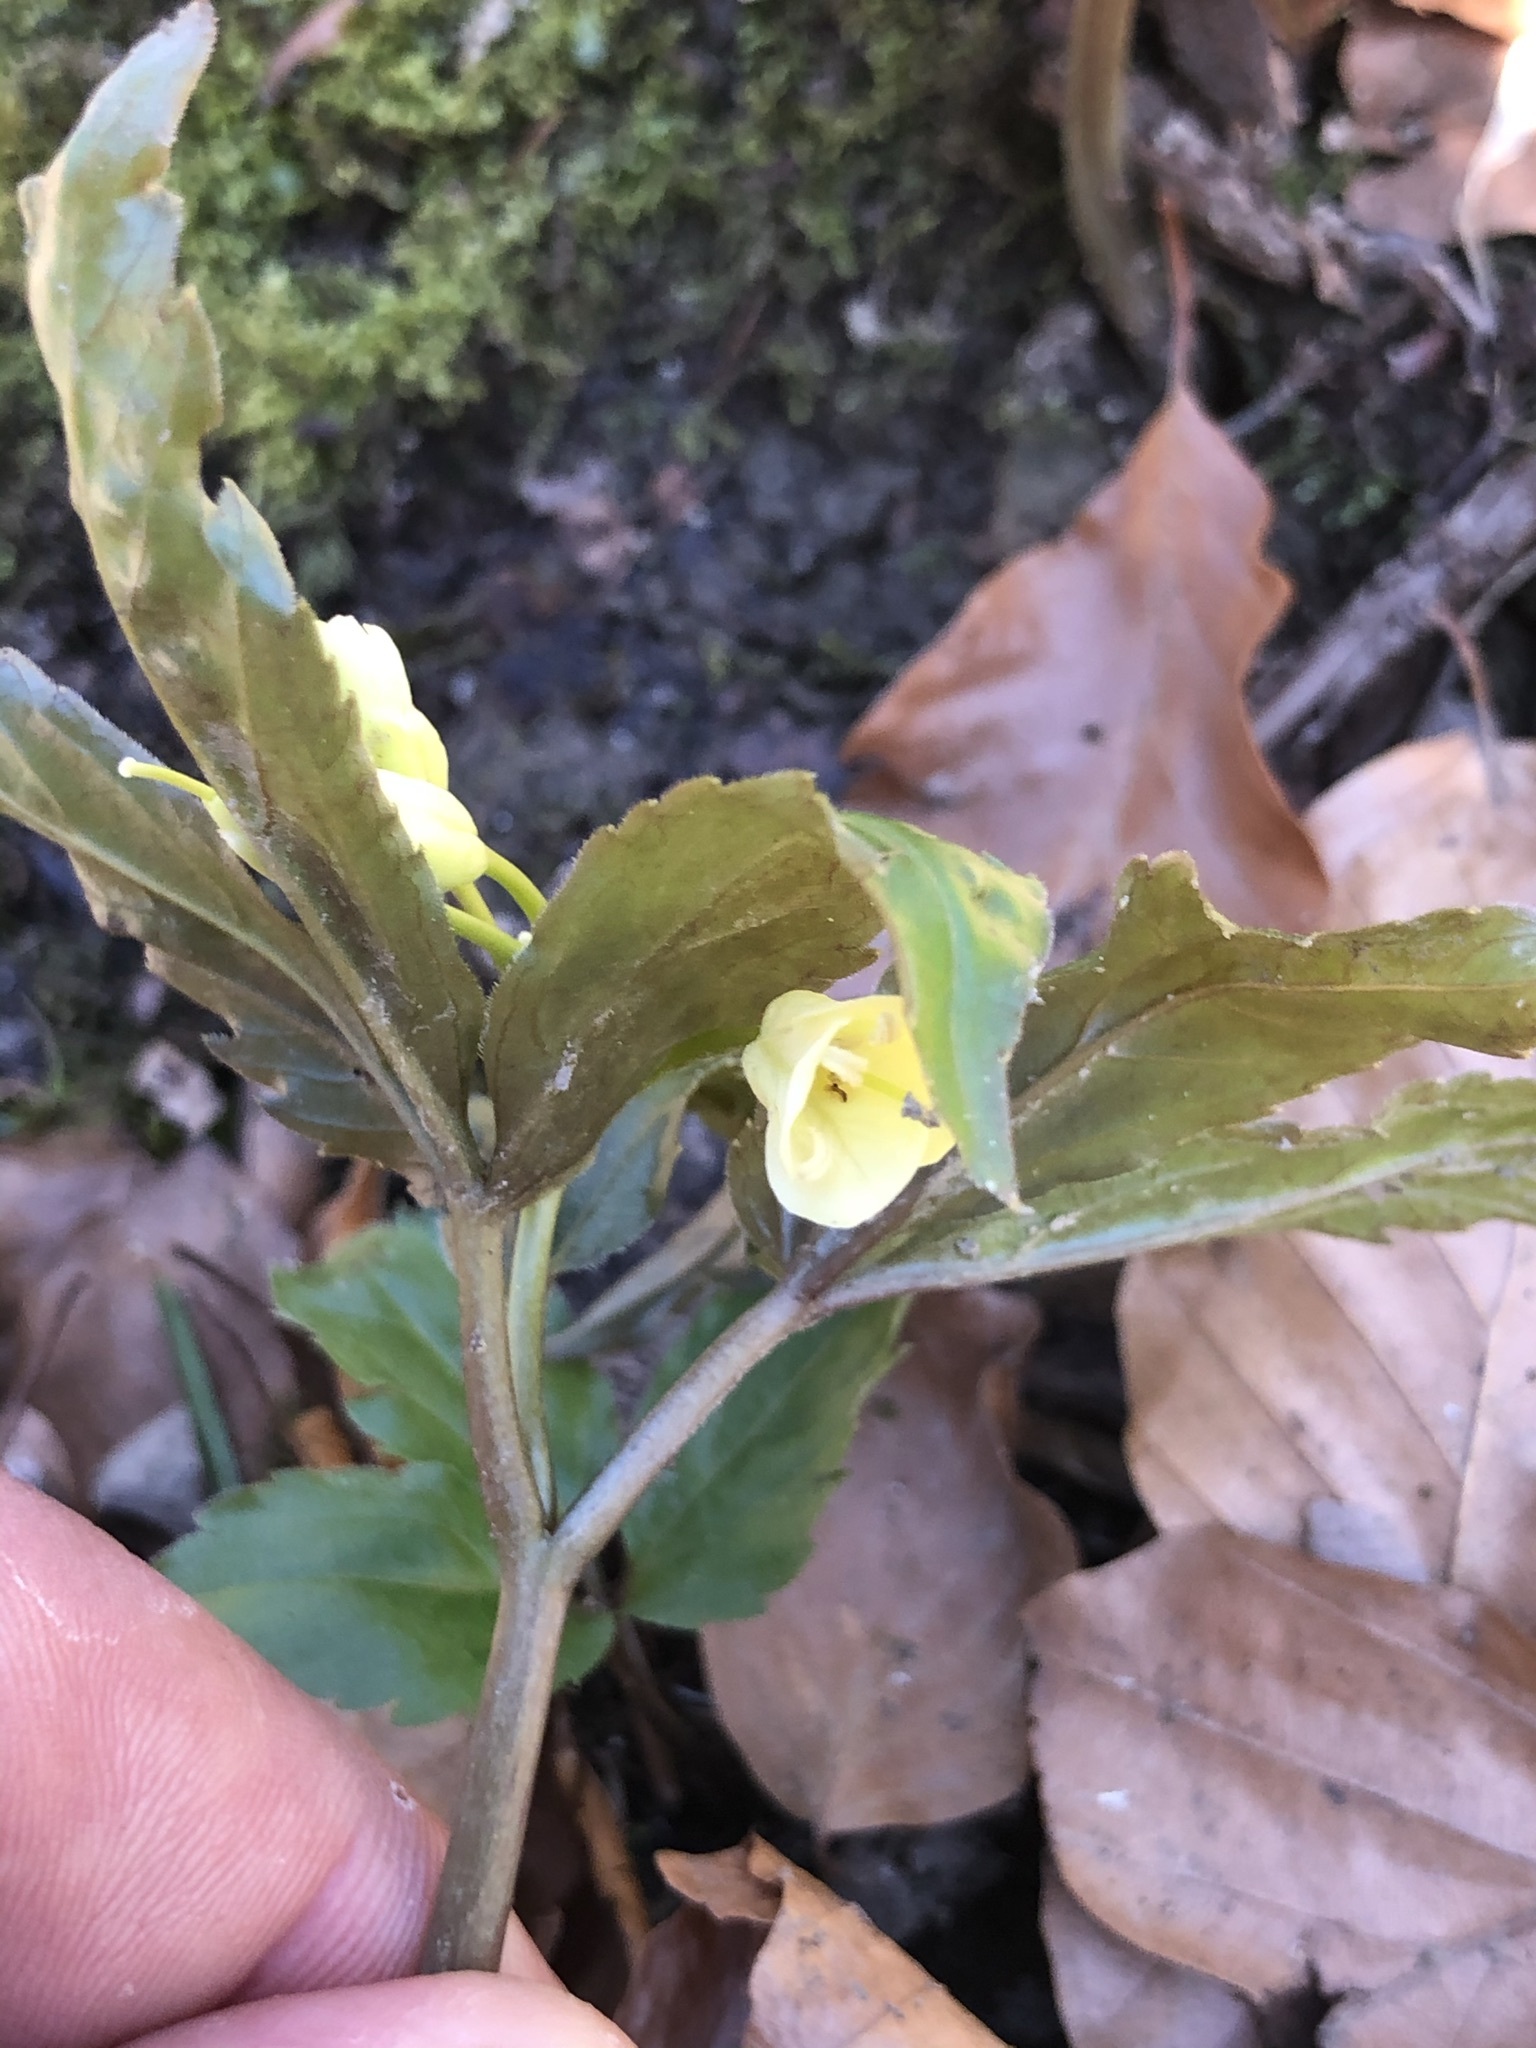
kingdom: Plantae
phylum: Tracheophyta
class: Magnoliopsida
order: Brassicales
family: Brassicaceae
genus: Cardamine
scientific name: Cardamine enneaphyllos
